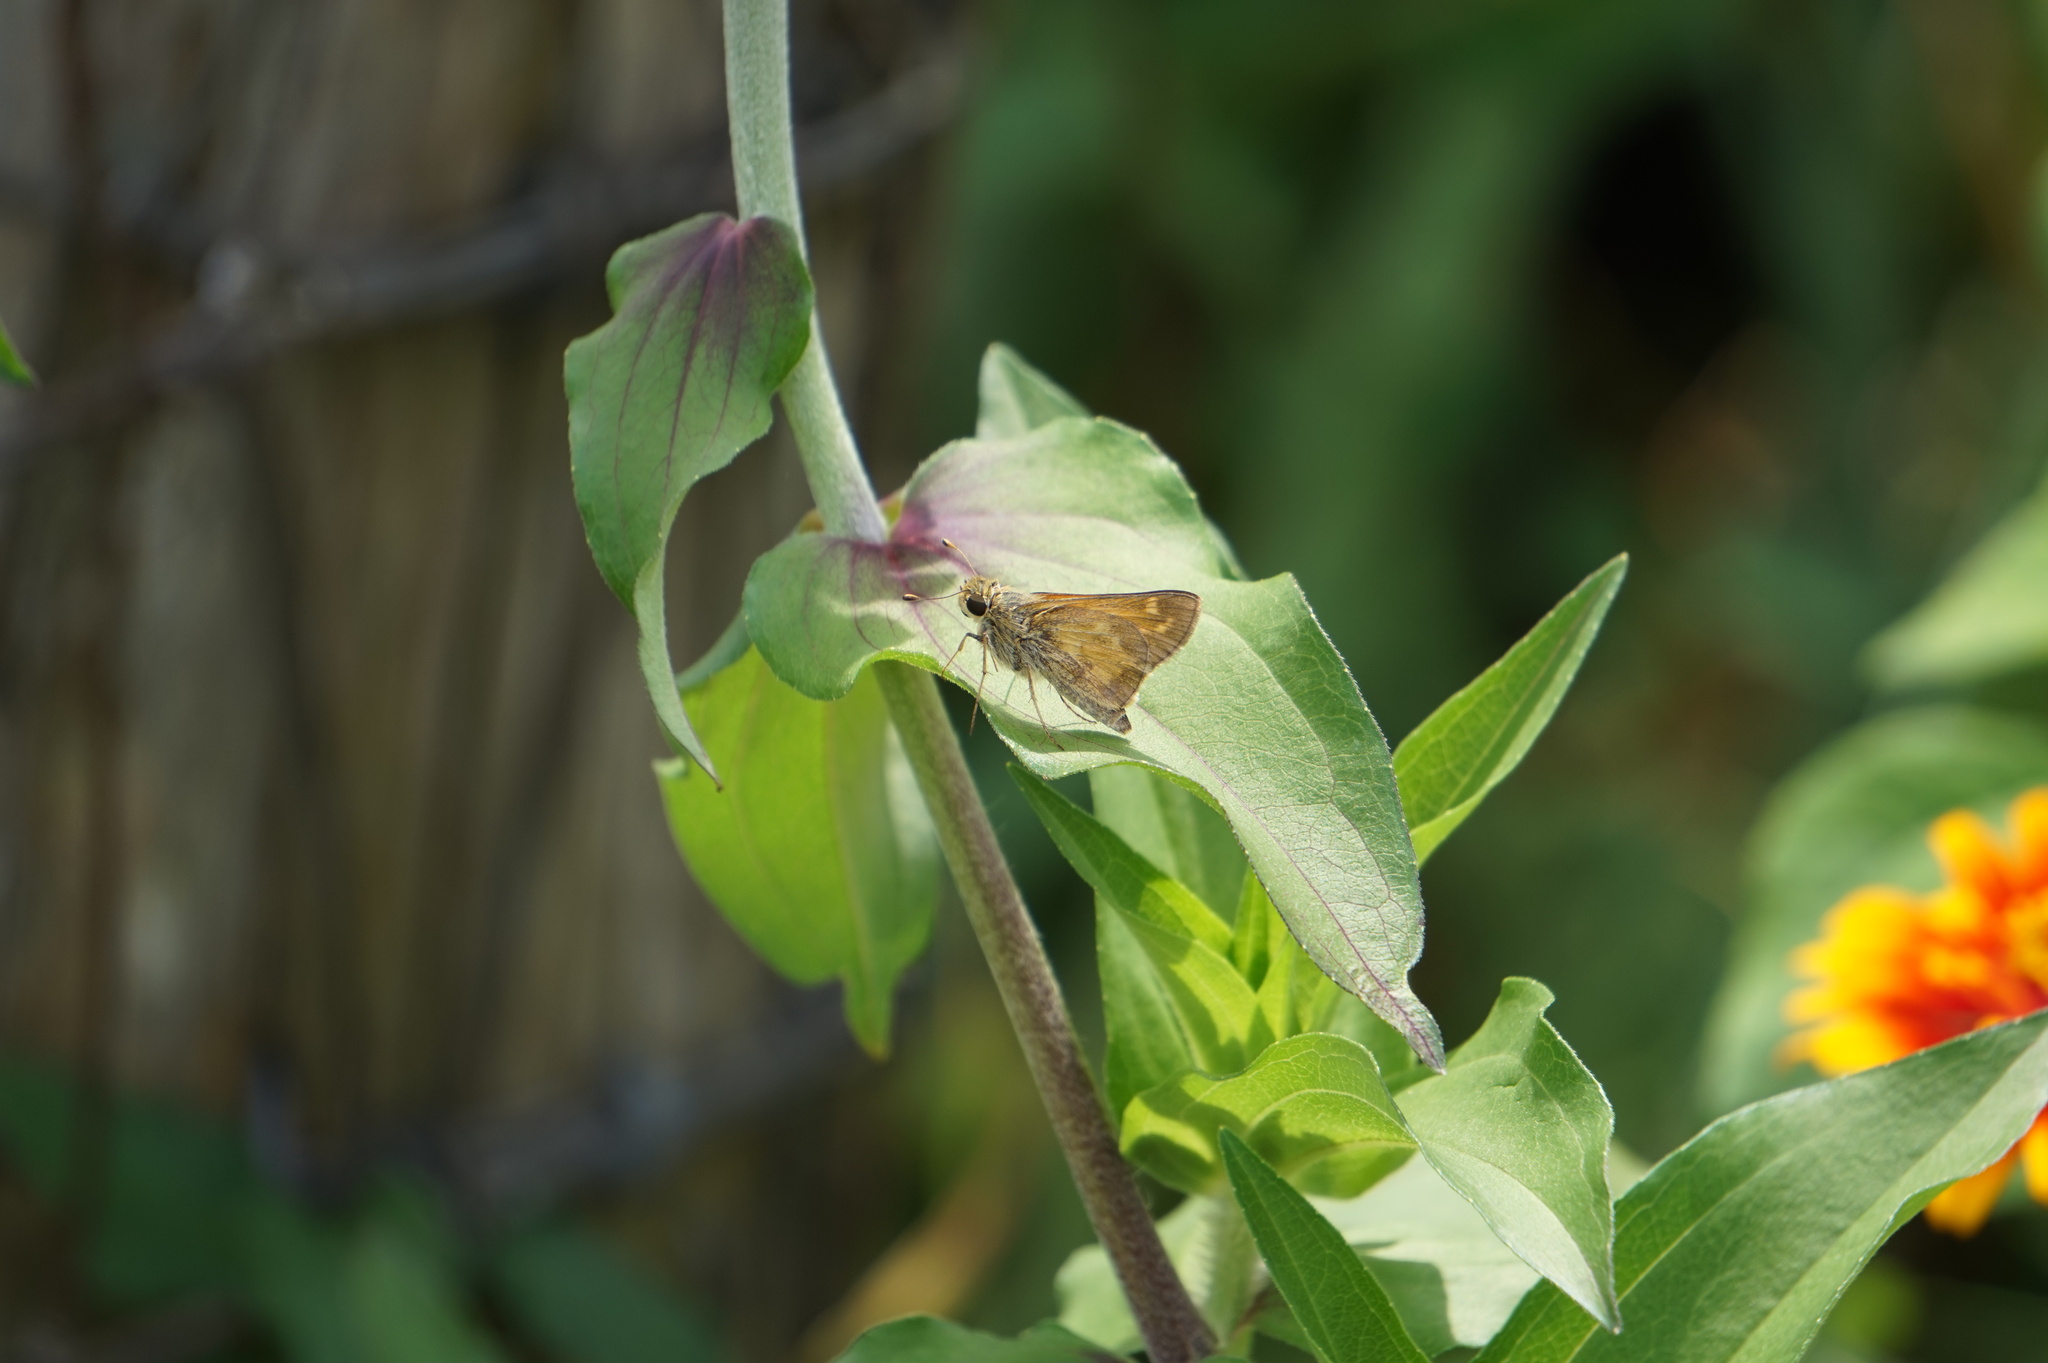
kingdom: Animalia
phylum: Arthropoda
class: Insecta
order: Lepidoptera
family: Hesperiidae
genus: Atalopedes
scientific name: Atalopedes
